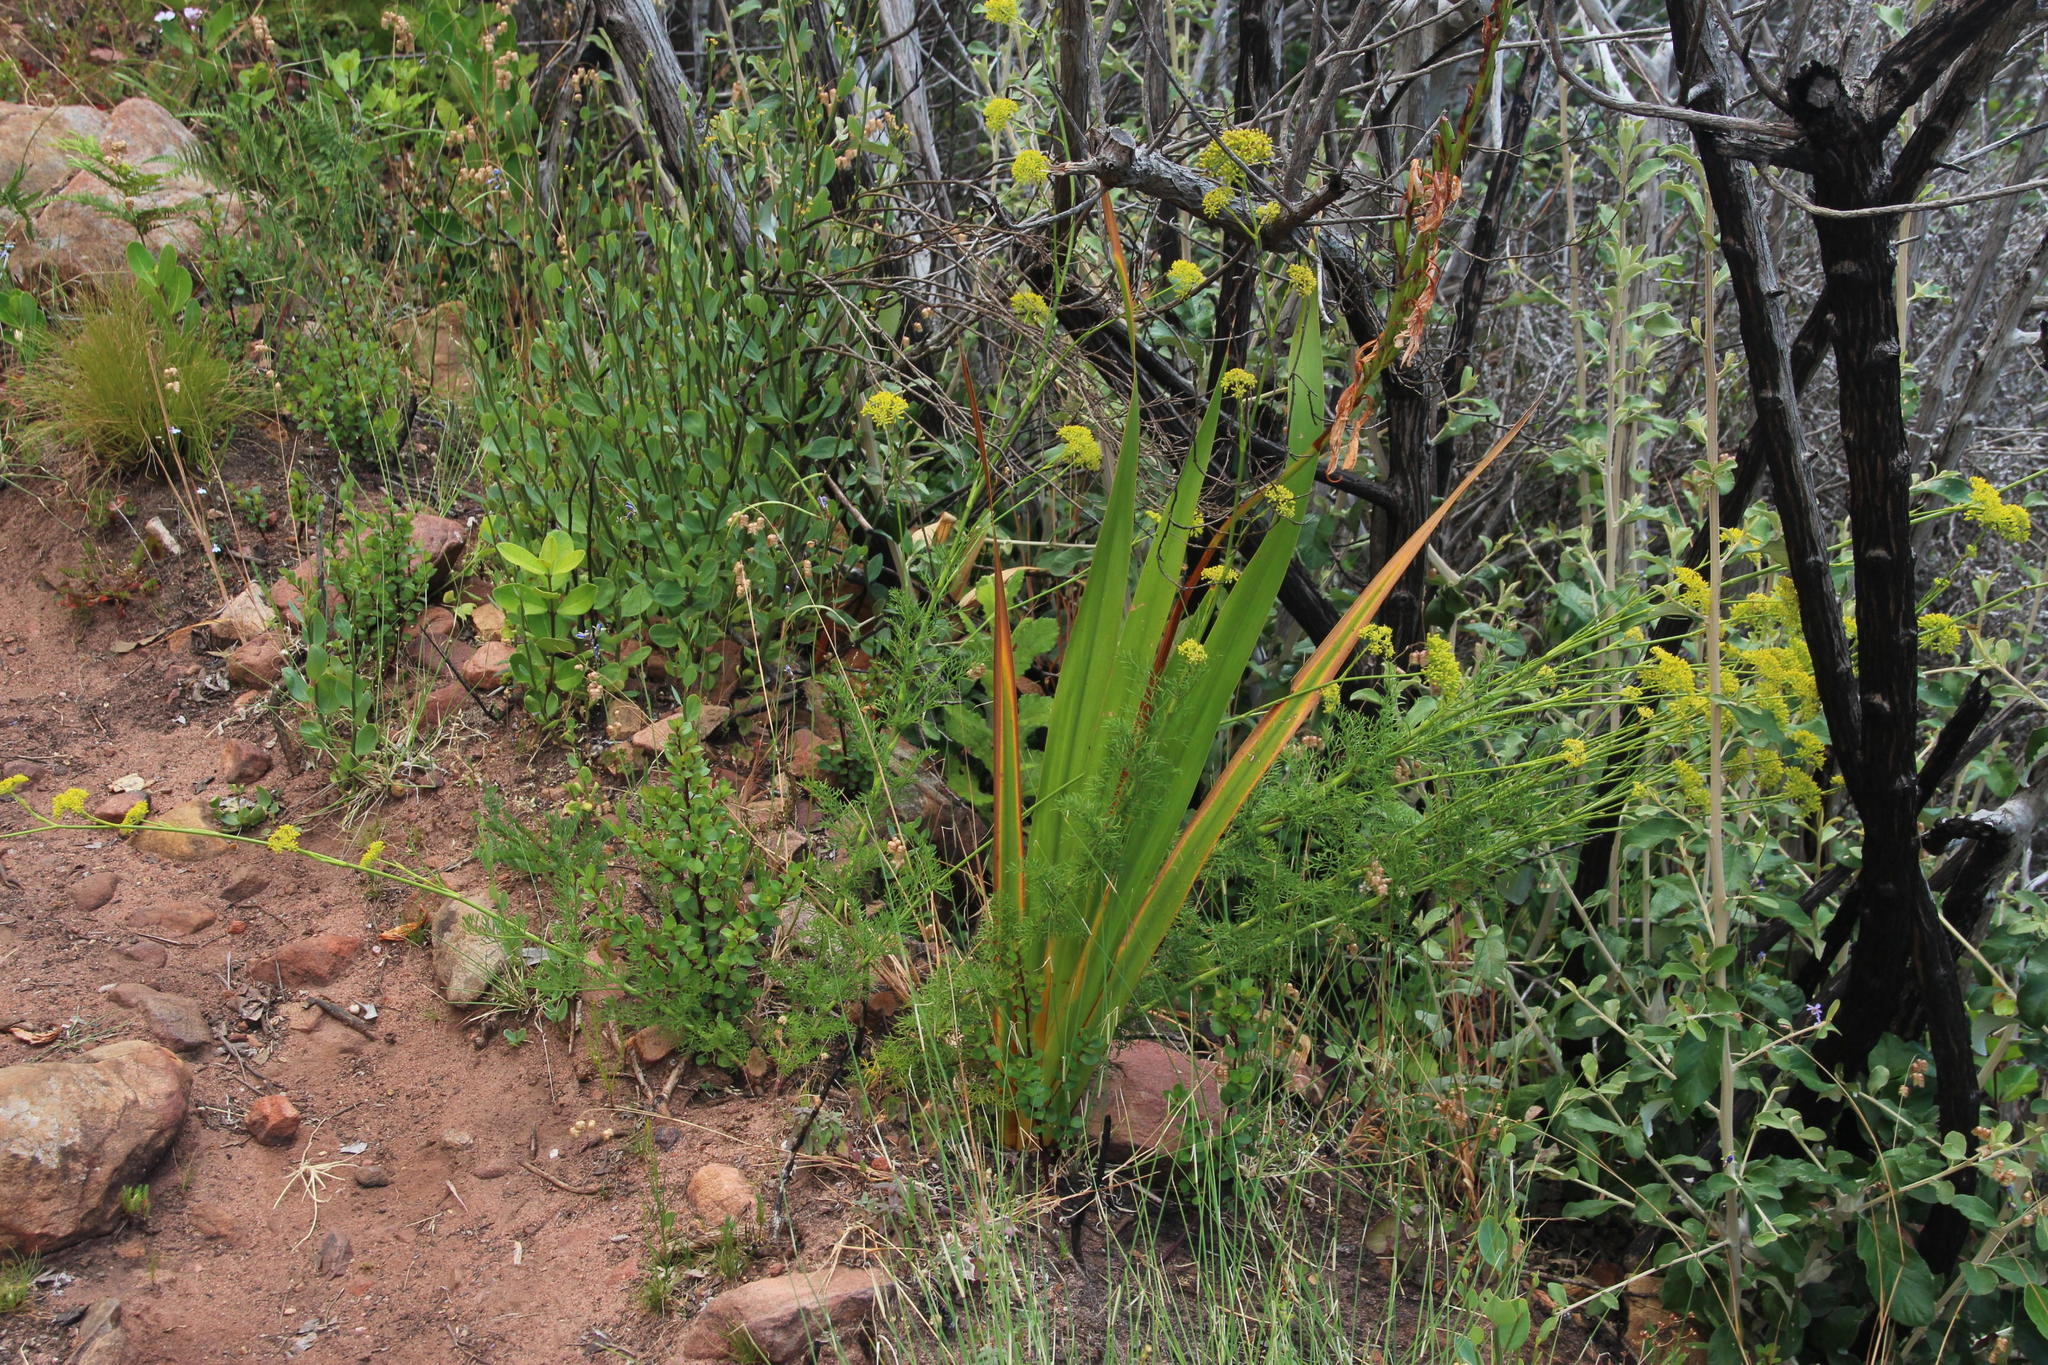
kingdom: Plantae
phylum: Tracheophyta
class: Magnoliopsida
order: Apiales
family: Apiaceae
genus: Notobubon
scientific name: Notobubon ferulaceum
